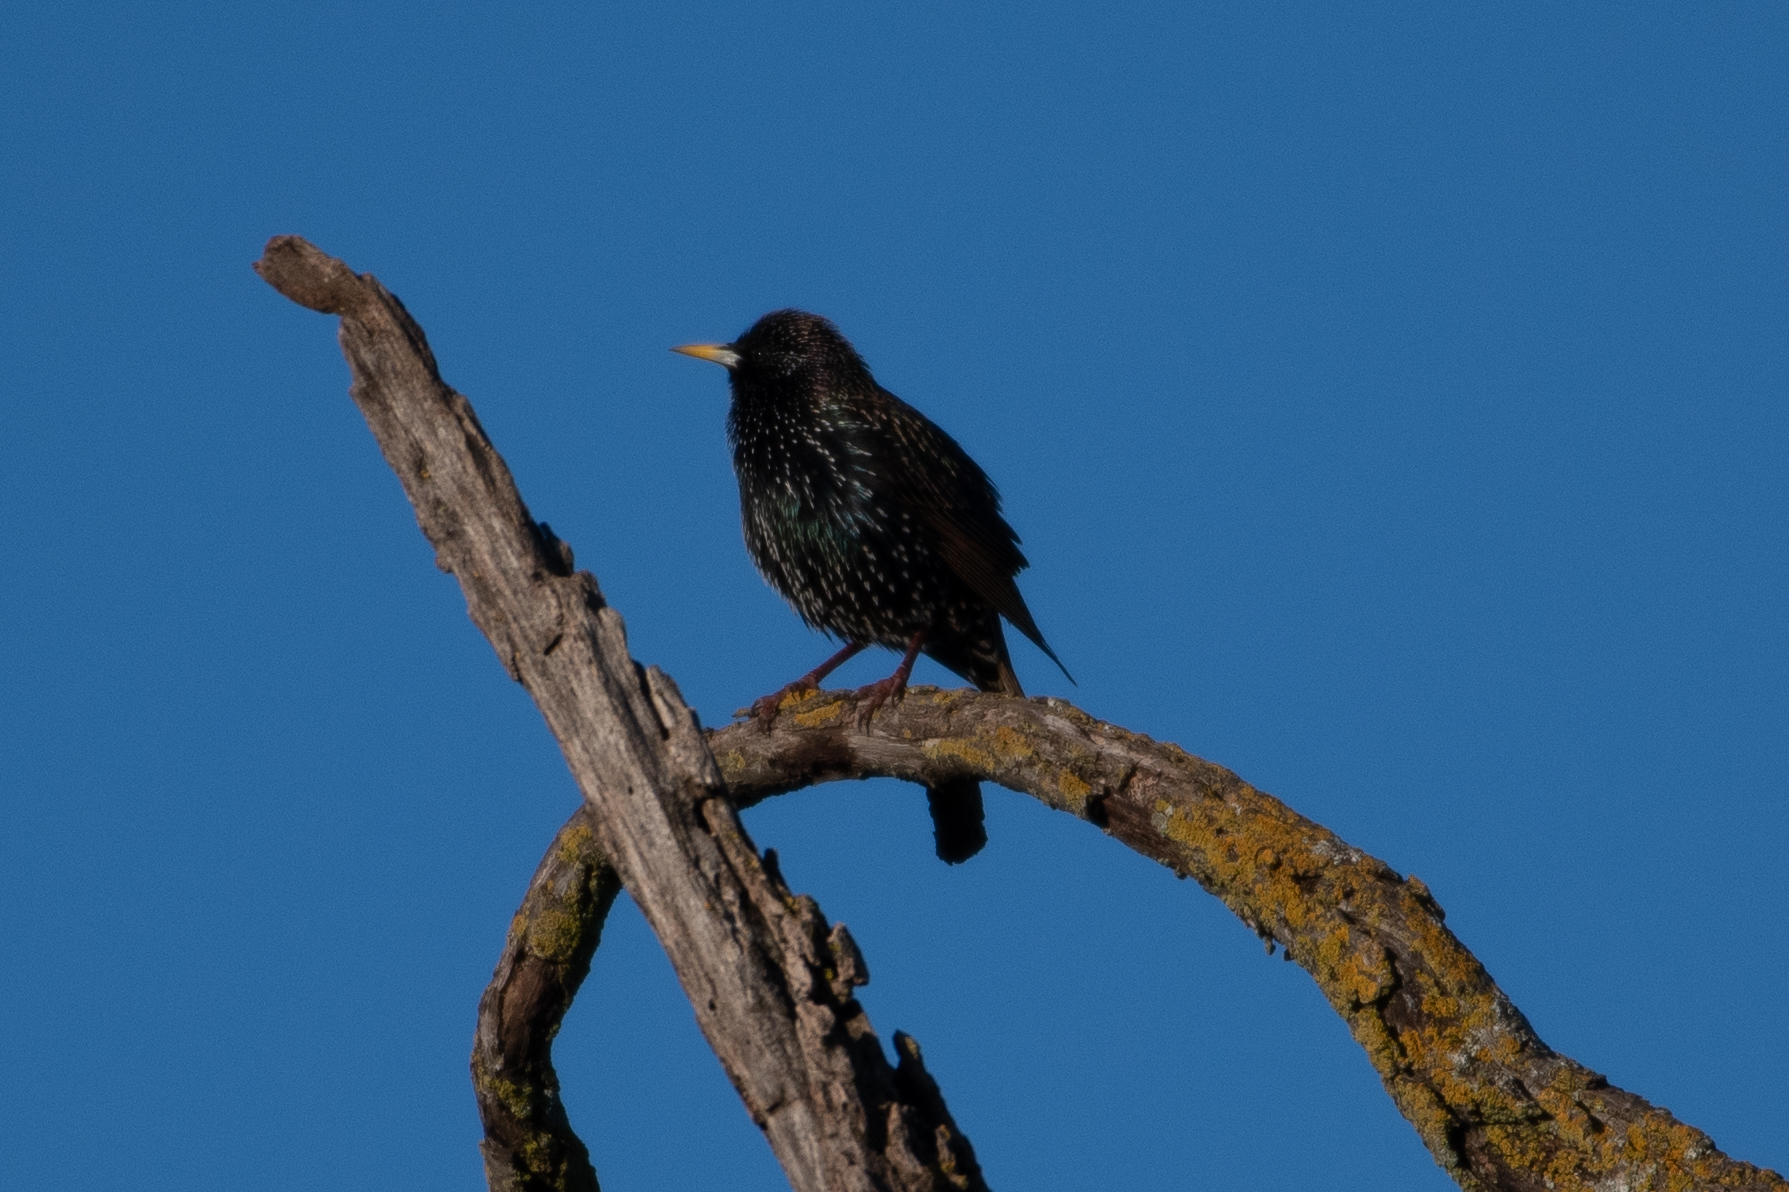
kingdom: Animalia
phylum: Chordata
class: Aves
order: Passeriformes
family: Sturnidae
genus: Sturnus
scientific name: Sturnus vulgaris
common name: Common starling
